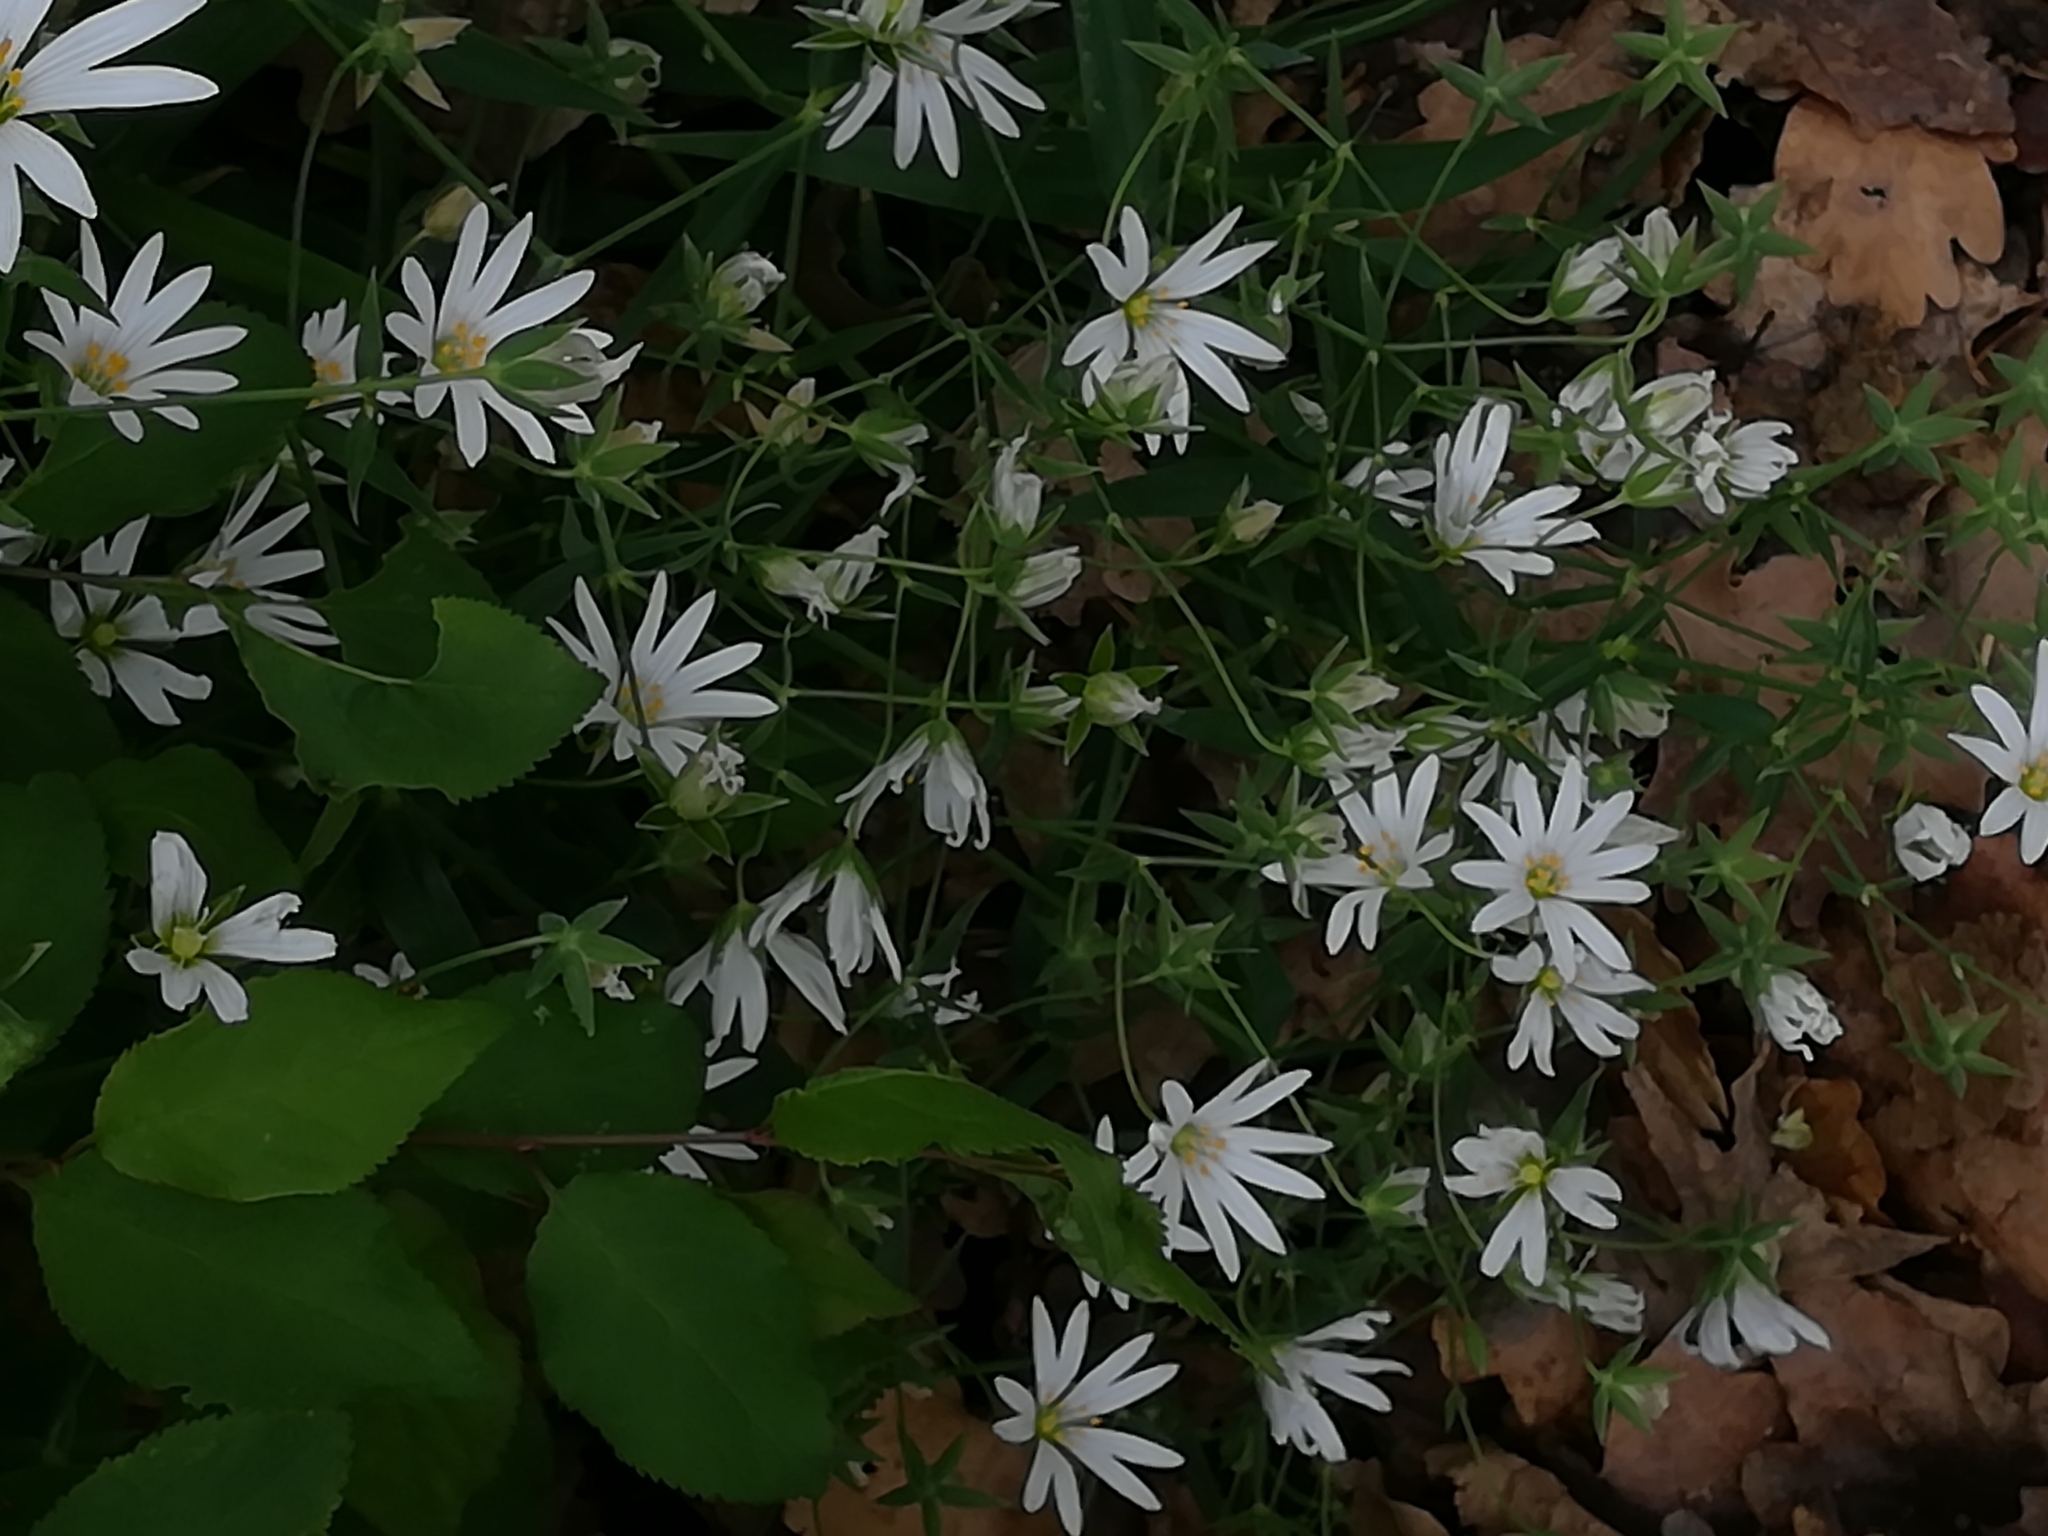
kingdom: Plantae
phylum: Tracheophyta
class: Magnoliopsida
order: Caryophyllales
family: Caryophyllaceae
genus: Rabelera
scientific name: Rabelera holostea
